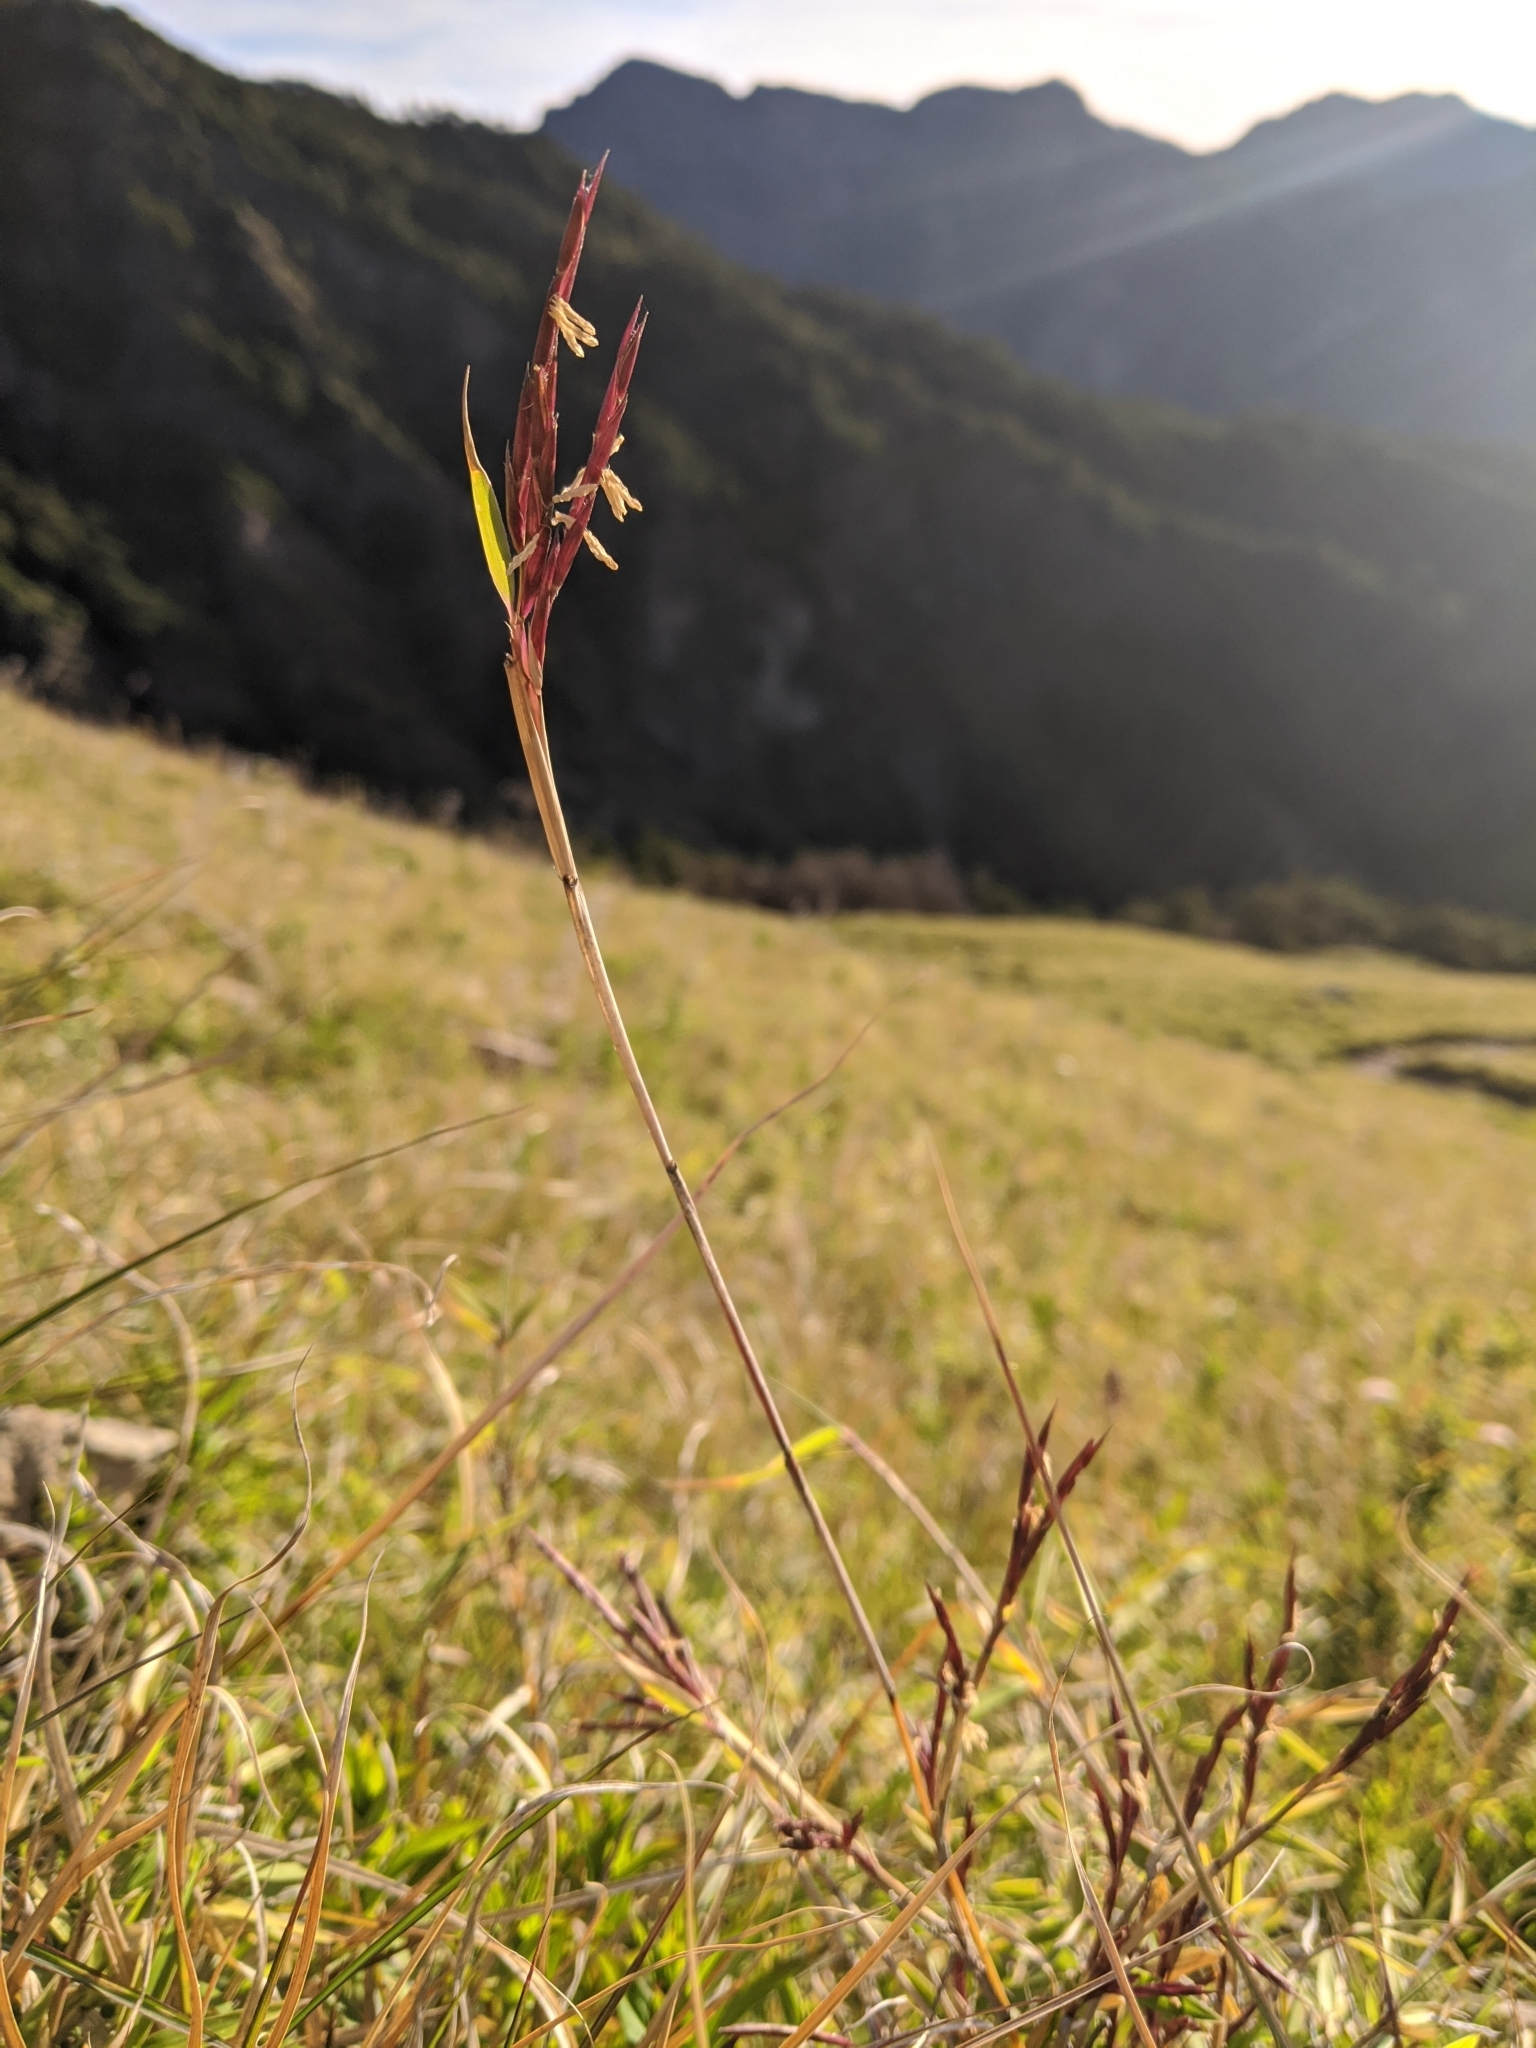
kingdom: Plantae
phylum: Tracheophyta
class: Liliopsida
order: Poales
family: Poaceae
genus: Yushania
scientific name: Yushania niitakayamensis
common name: Yushan cane
